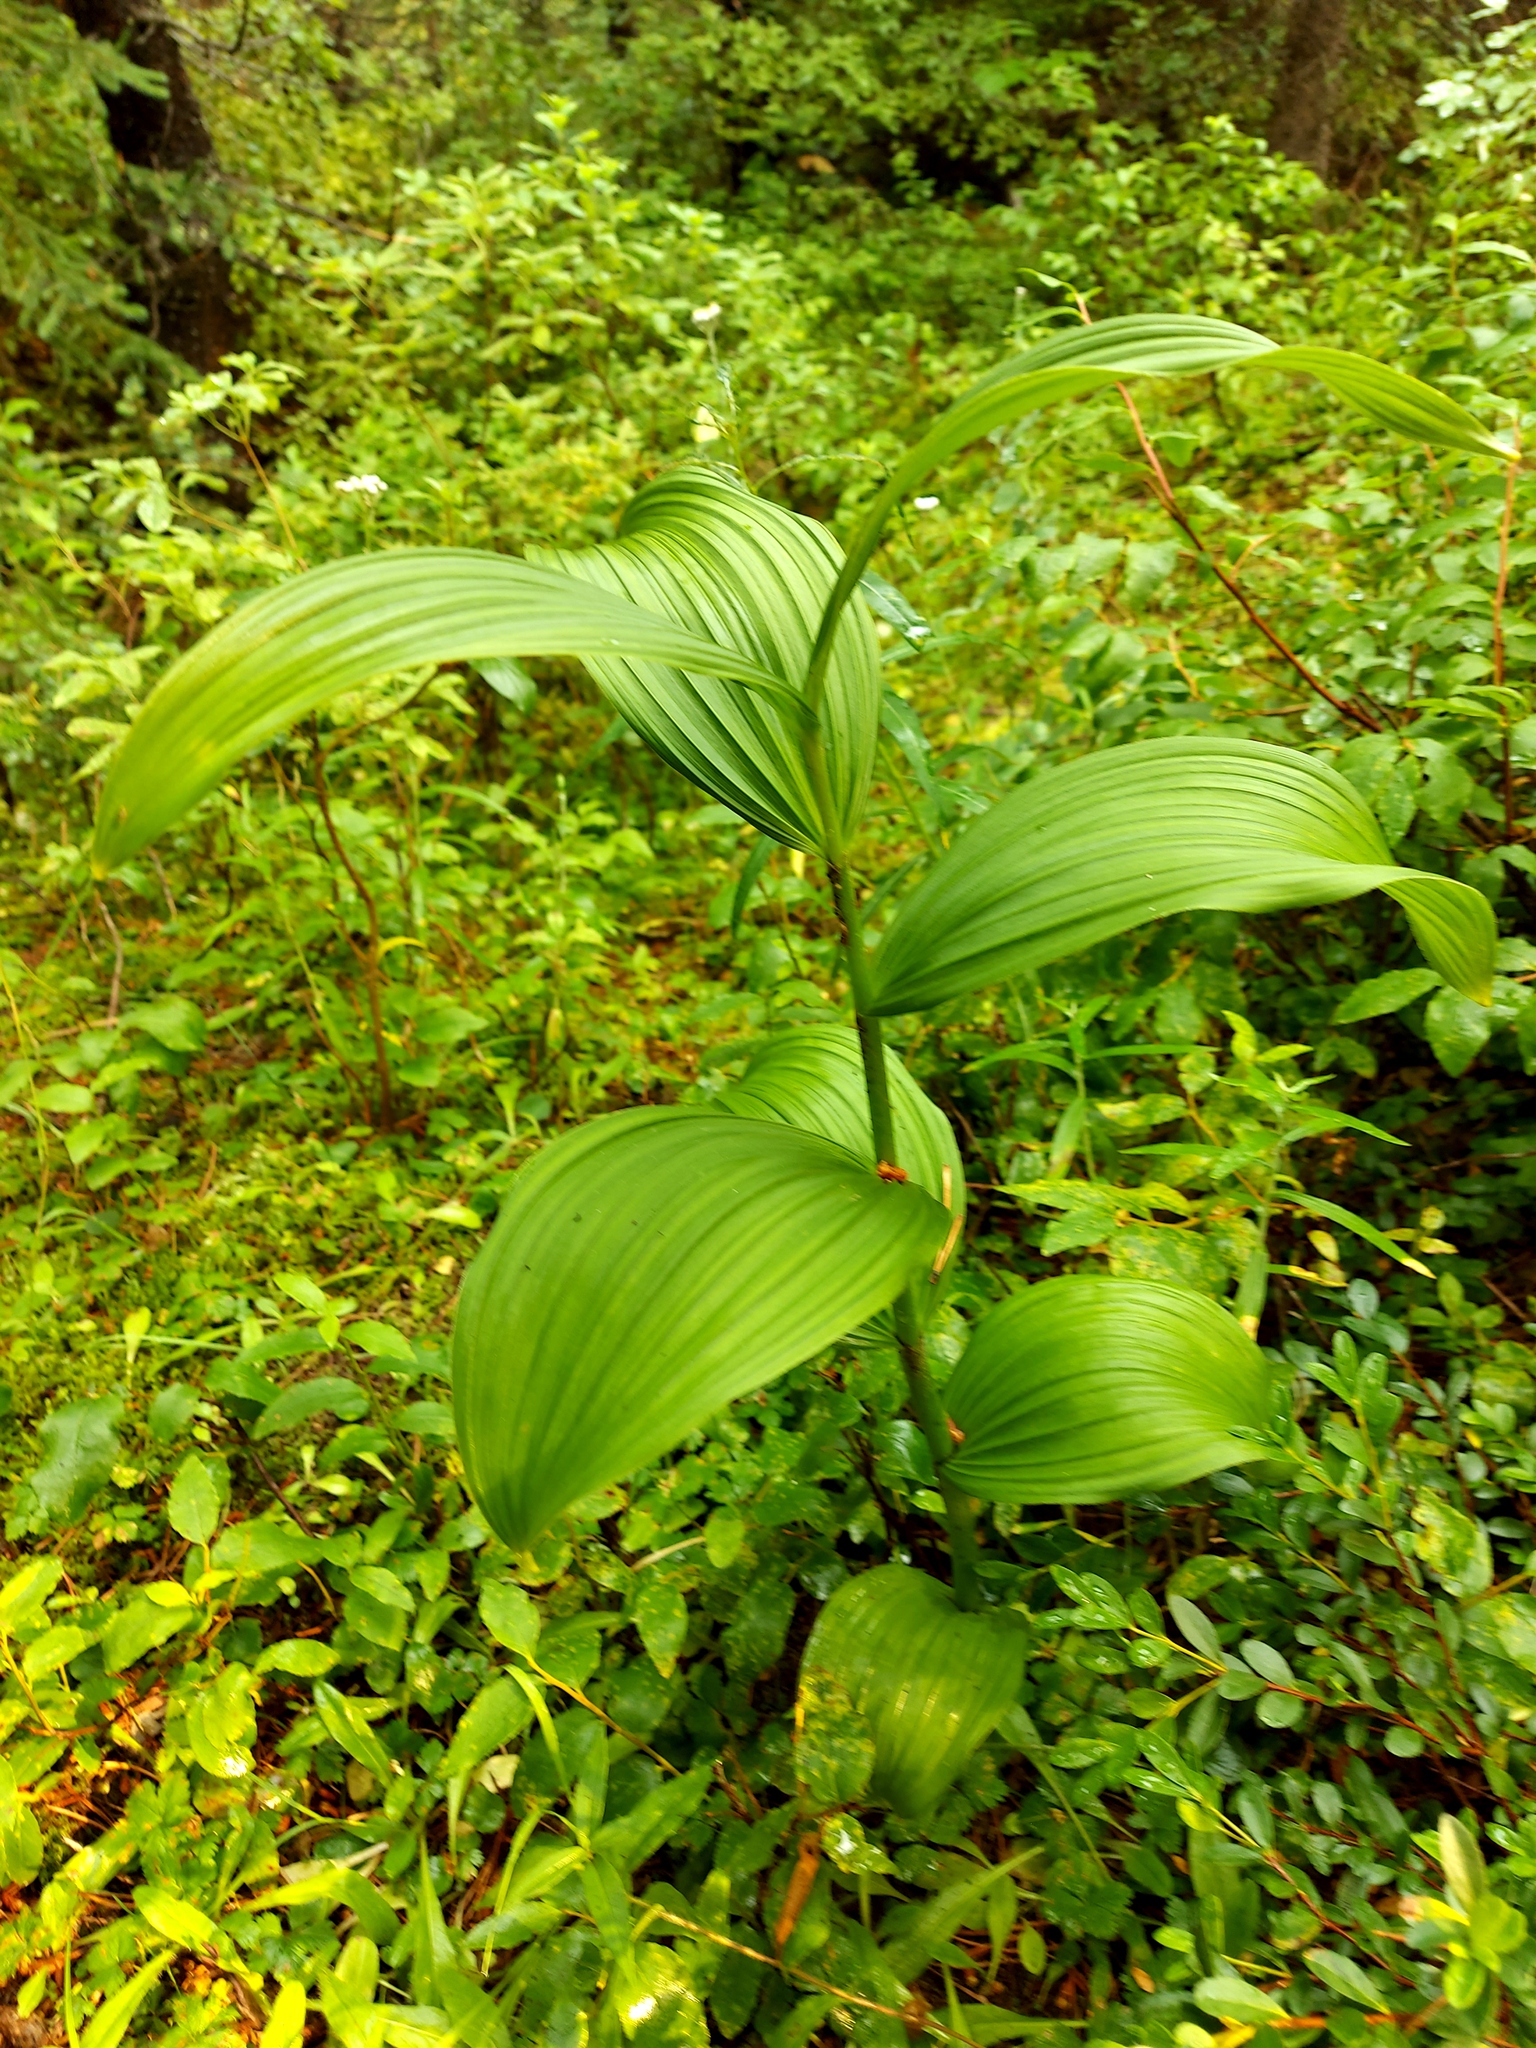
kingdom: Plantae
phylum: Tracheophyta
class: Liliopsida
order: Liliales
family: Melanthiaceae
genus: Veratrum
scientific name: Veratrum viride
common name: American false hellebore
